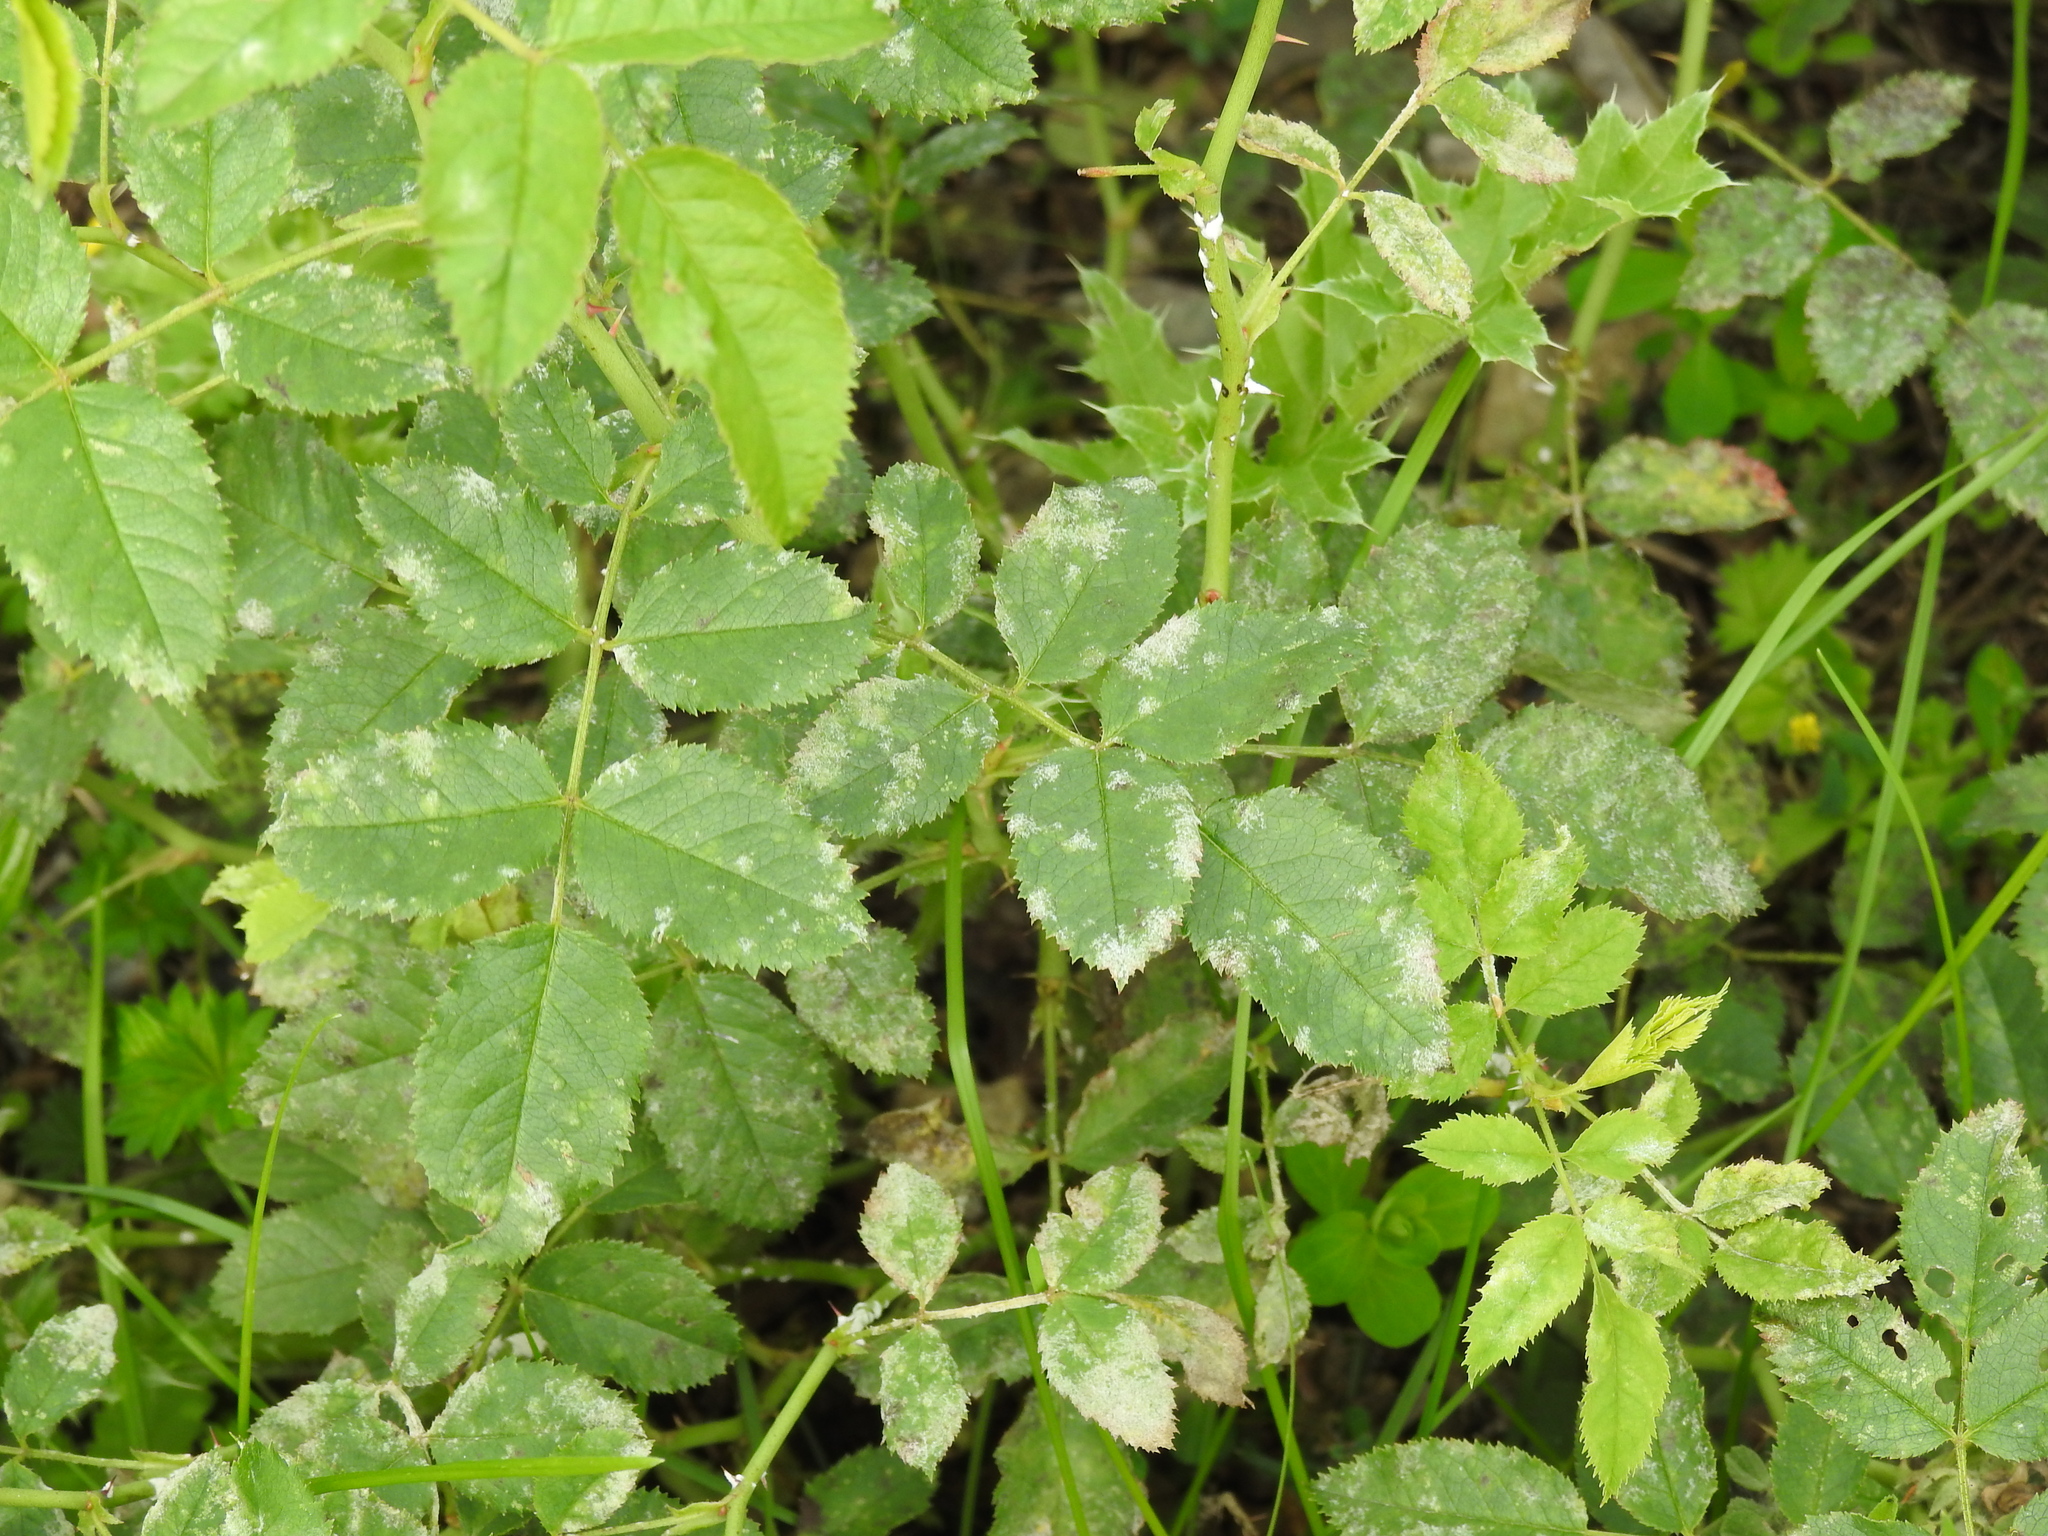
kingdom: Fungi
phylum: Ascomycota
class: Leotiomycetes
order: Helotiales
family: Erysiphaceae
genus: Podosphaera
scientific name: Podosphaera pannosa
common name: Rose mildew
